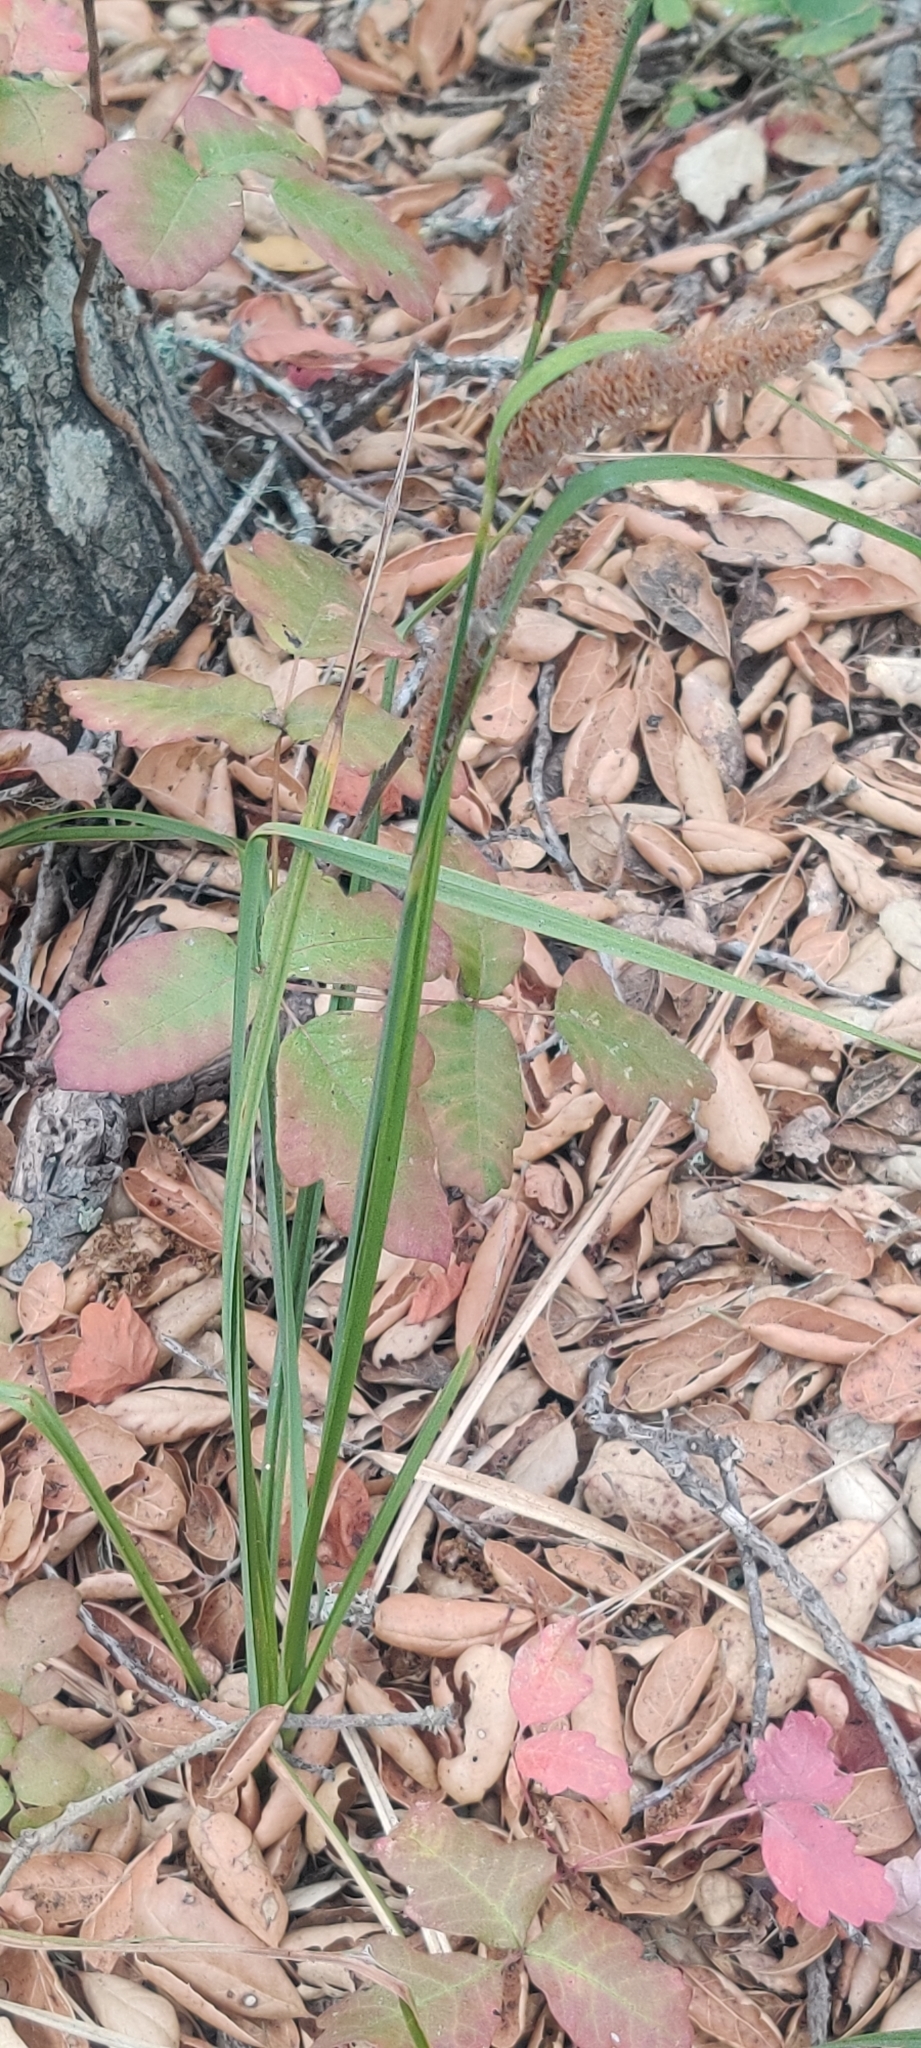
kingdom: Plantae
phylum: Tracheophyta
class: Liliopsida
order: Poales
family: Cyperaceae
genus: Carex
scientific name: Carex barbarae
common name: Santa barbara sedge
